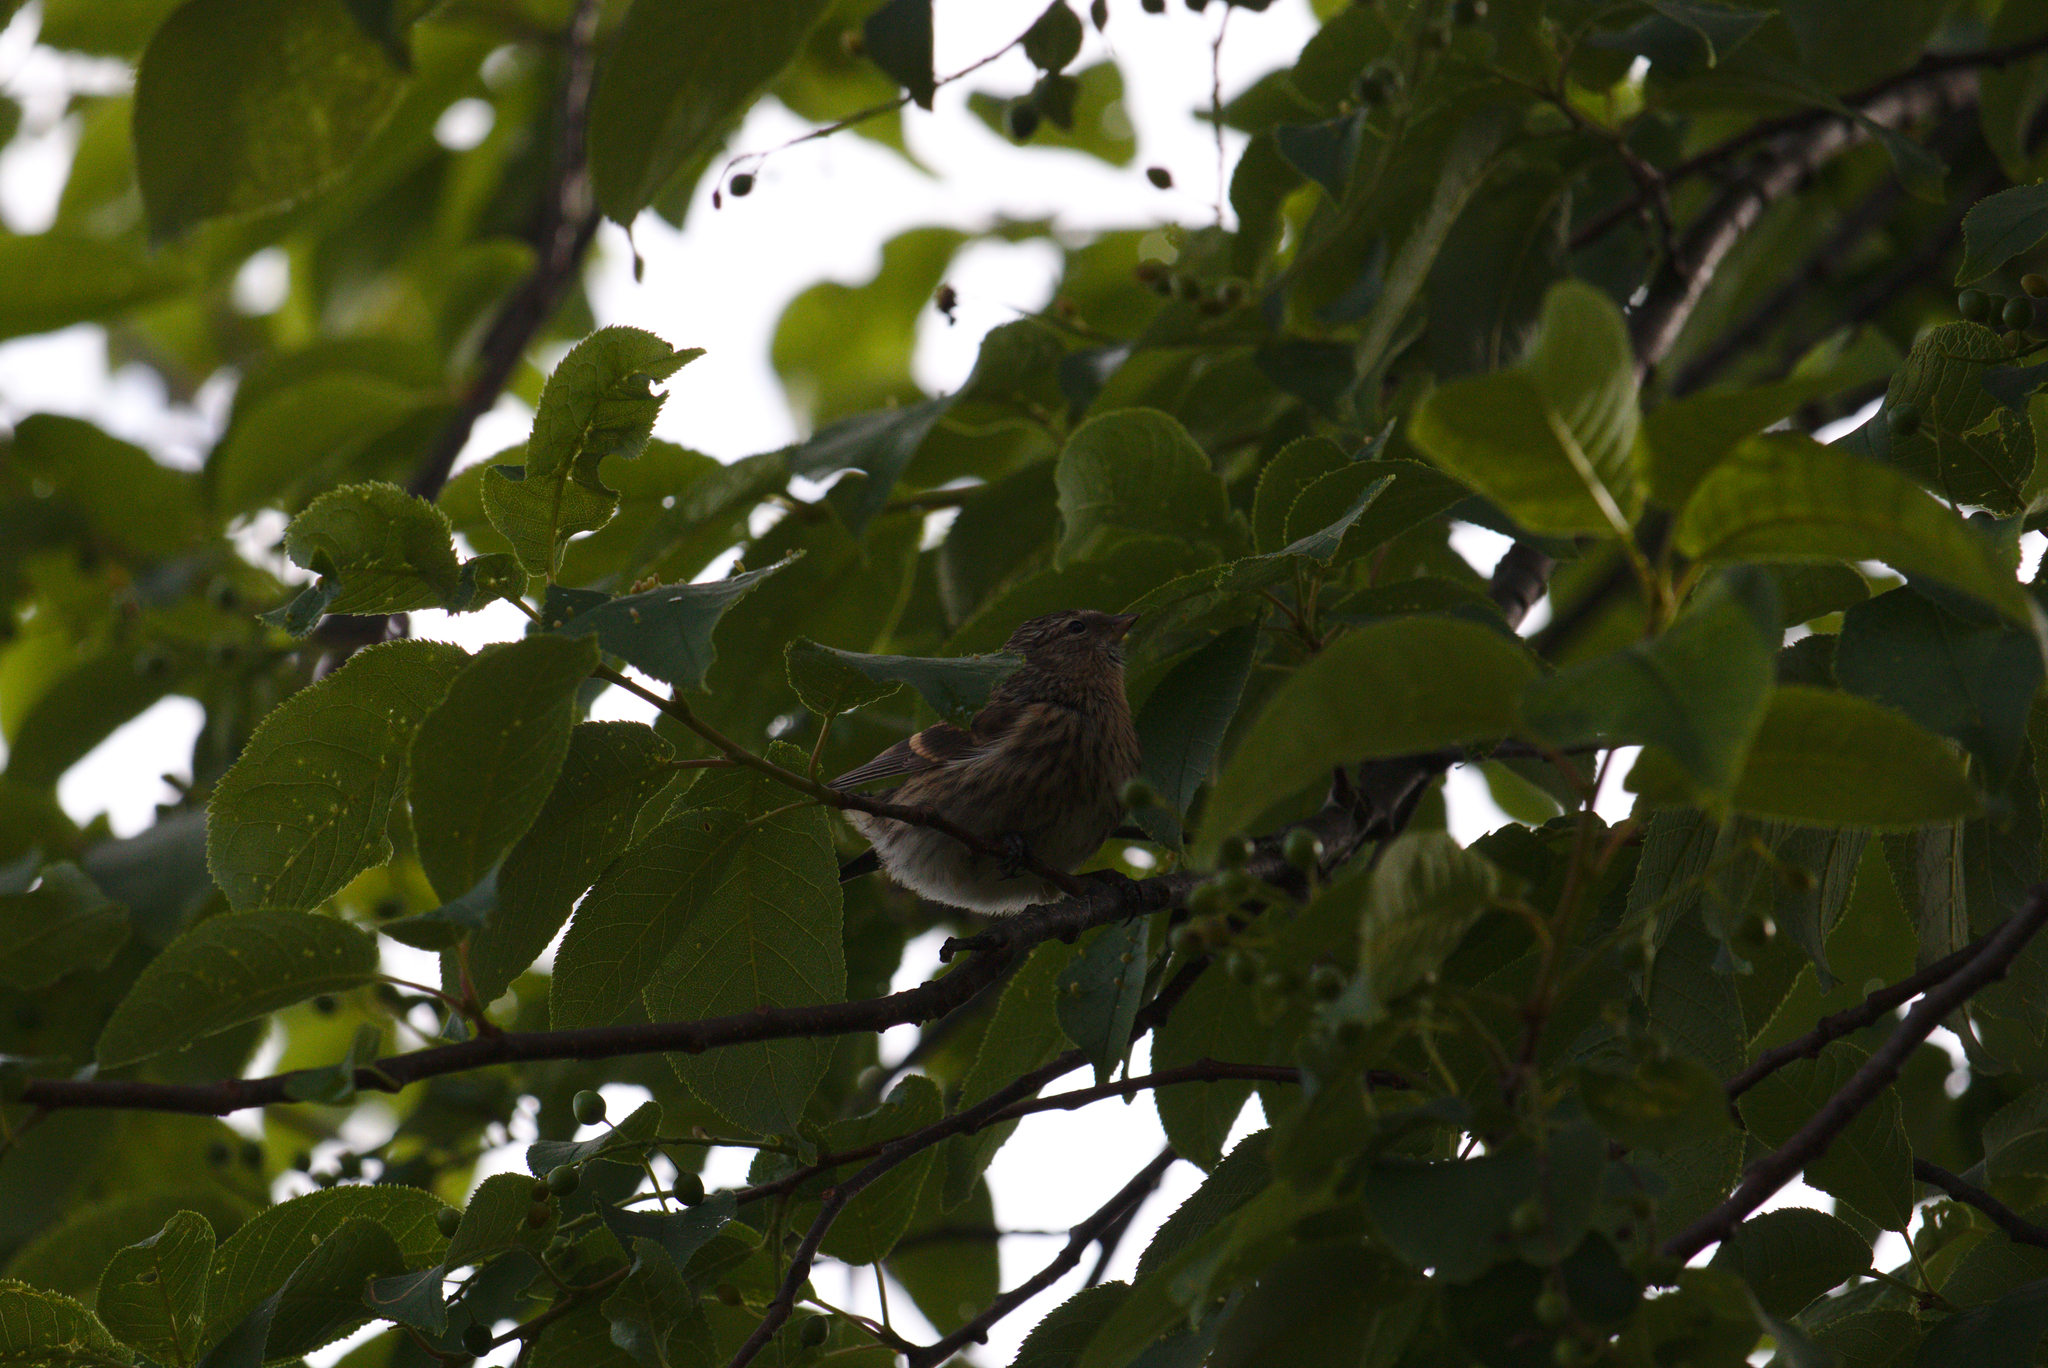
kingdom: Animalia
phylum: Chordata
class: Aves
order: Passeriformes
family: Fringillidae
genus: Acanthis
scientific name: Acanthis flammea
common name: Common redpoll
